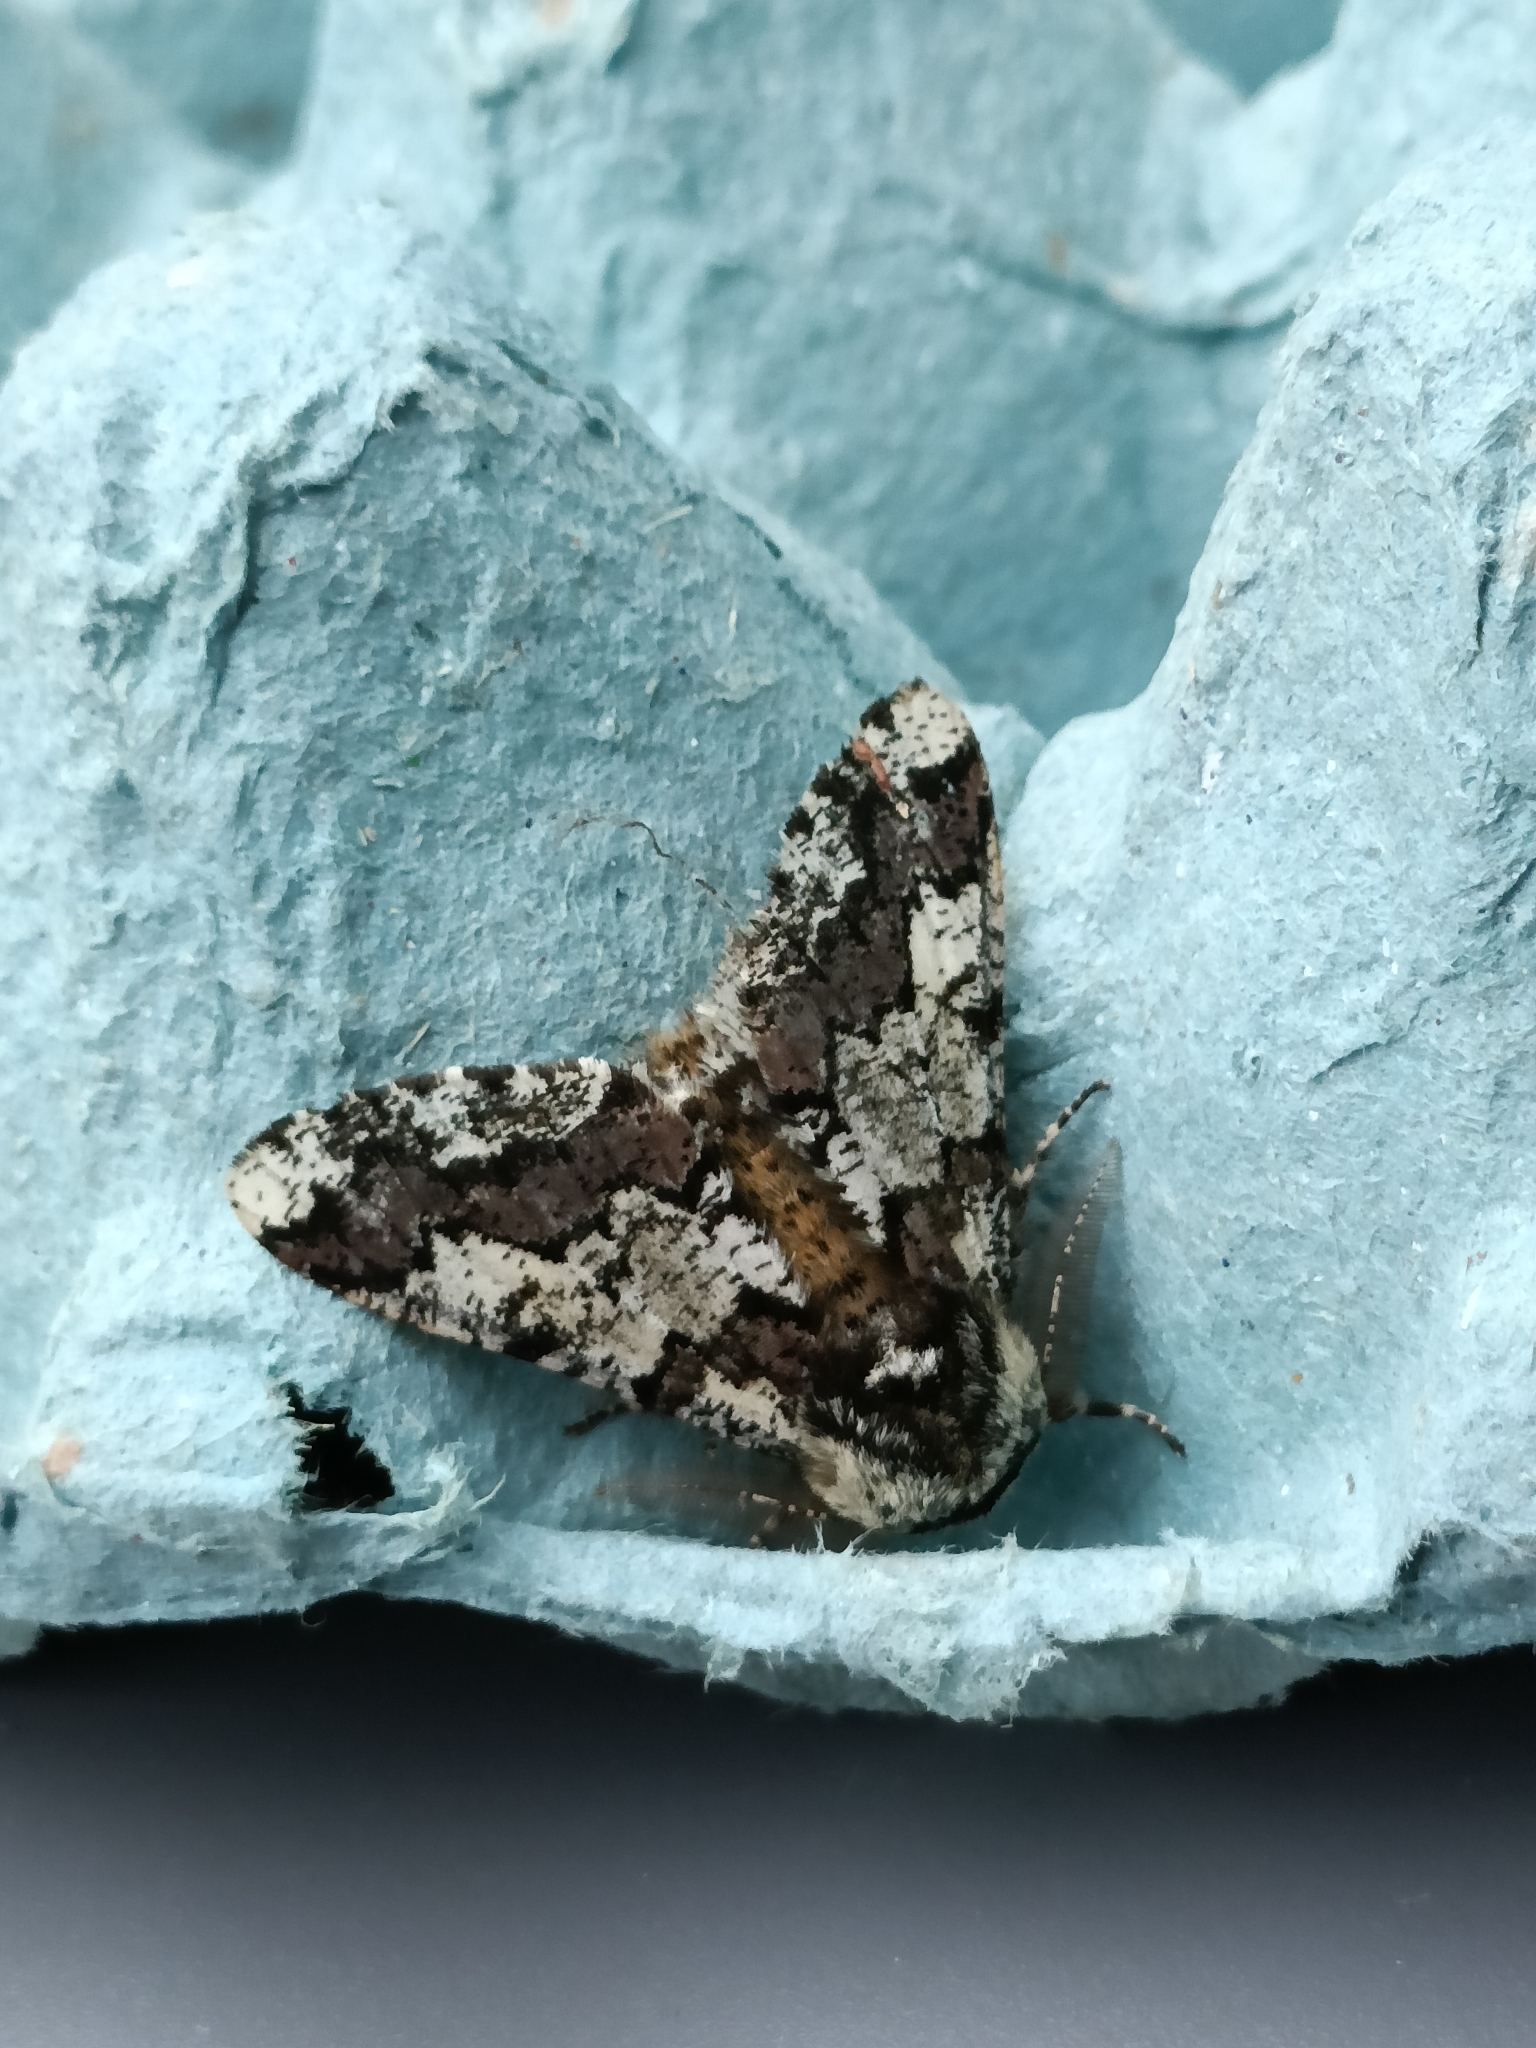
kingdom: Animalia
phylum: Arthropoda
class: Insecta
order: Lepidoptera
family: Geometridae
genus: Biston
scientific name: Biston strataria
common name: Oak beauty
